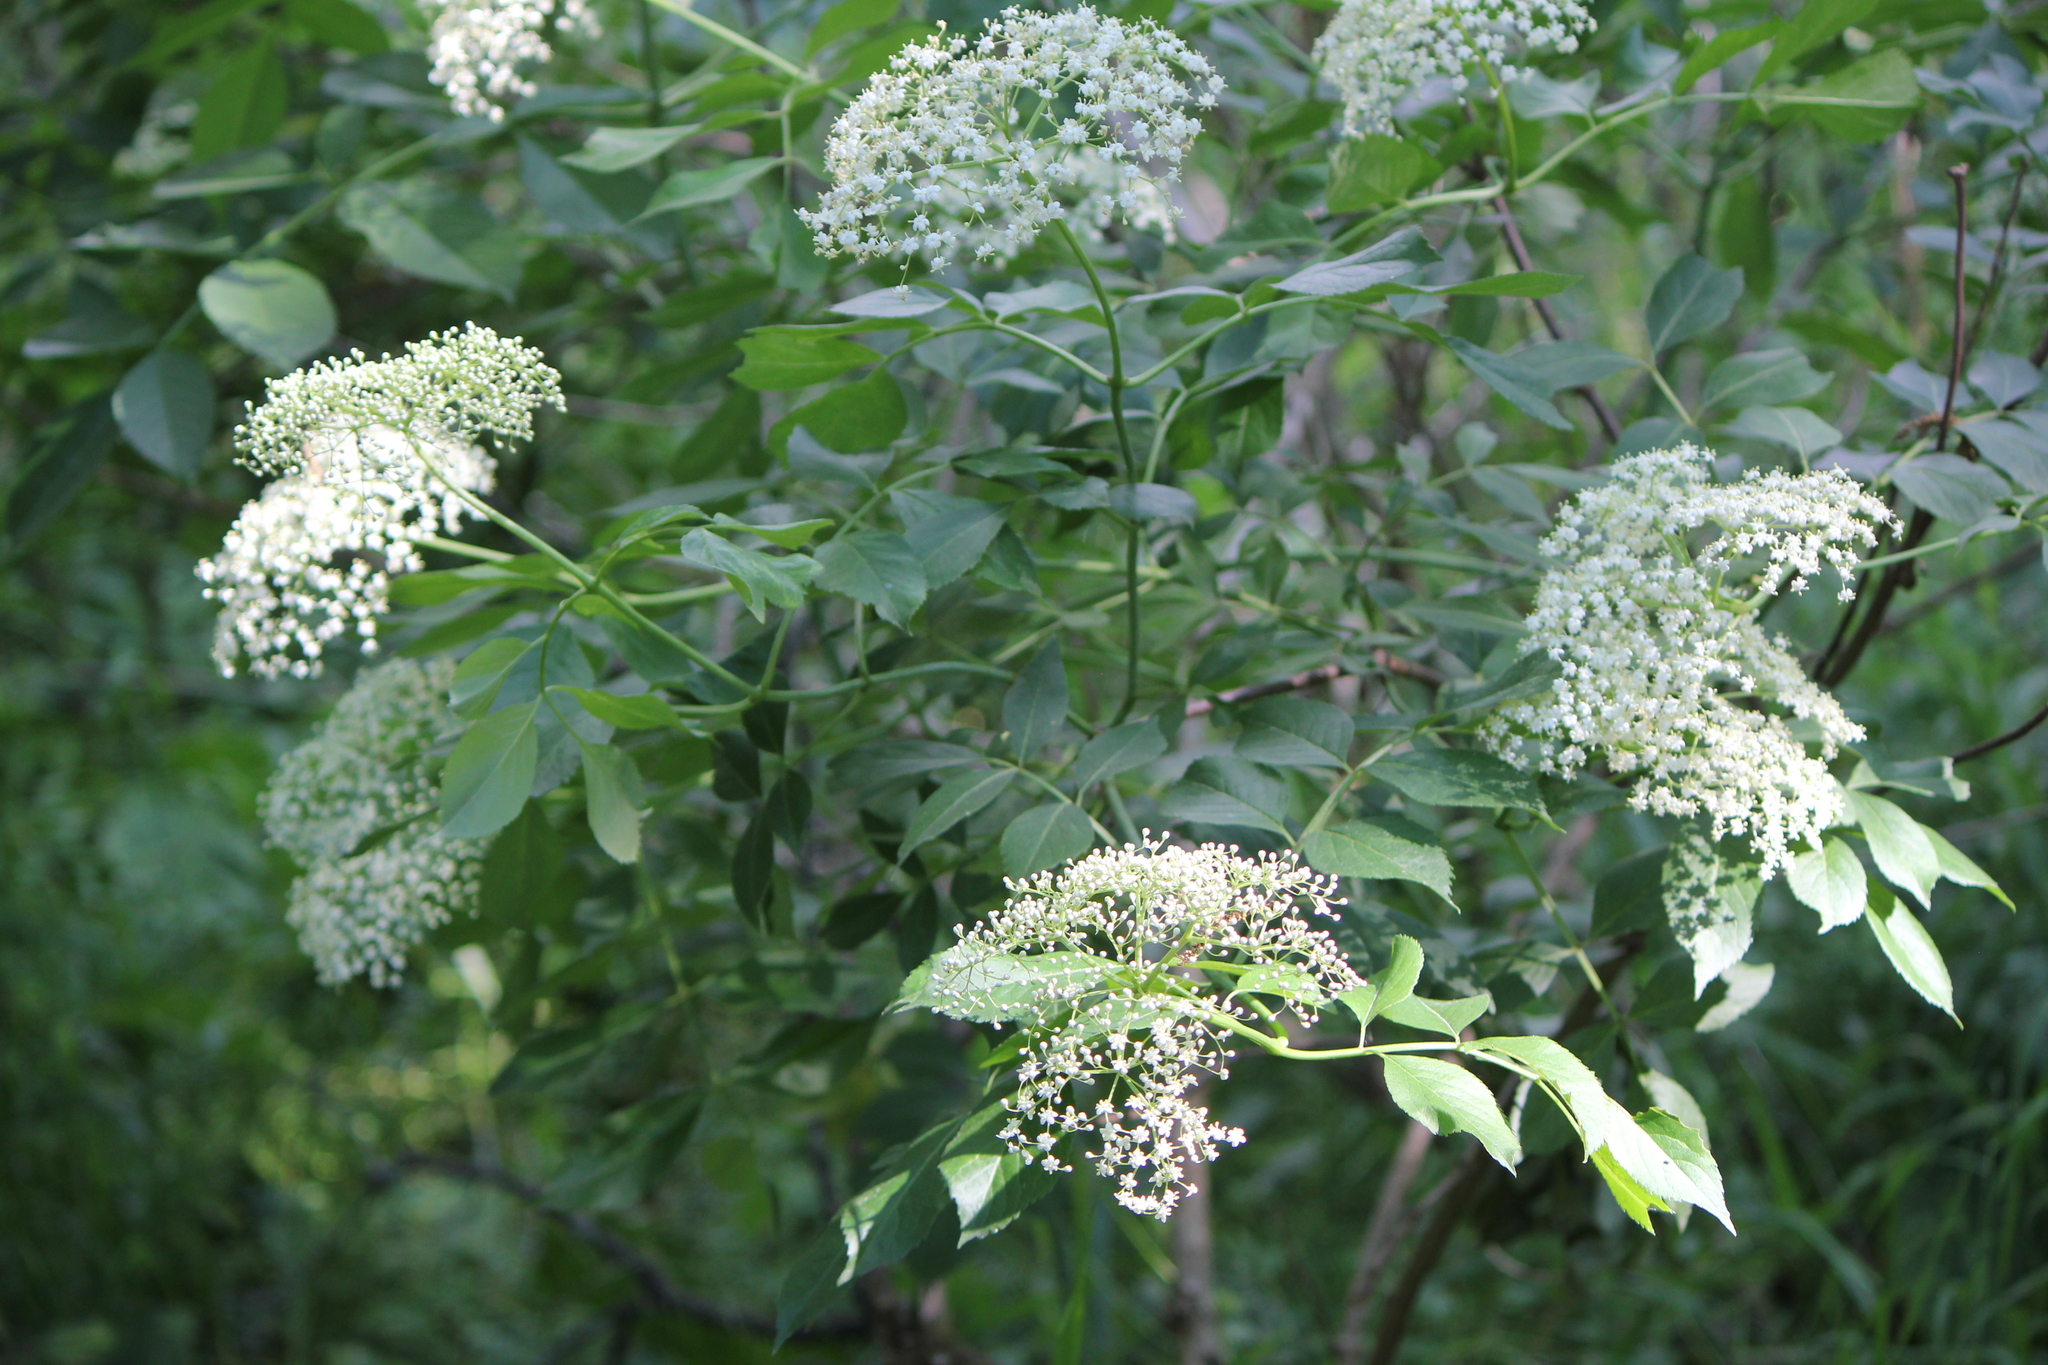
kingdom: Plantae
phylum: Tracheophyta
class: Magnoliopsida
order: Dipsacales
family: Viburnaceae
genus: Sambucus
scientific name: Sambucus canadensis
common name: American elder
